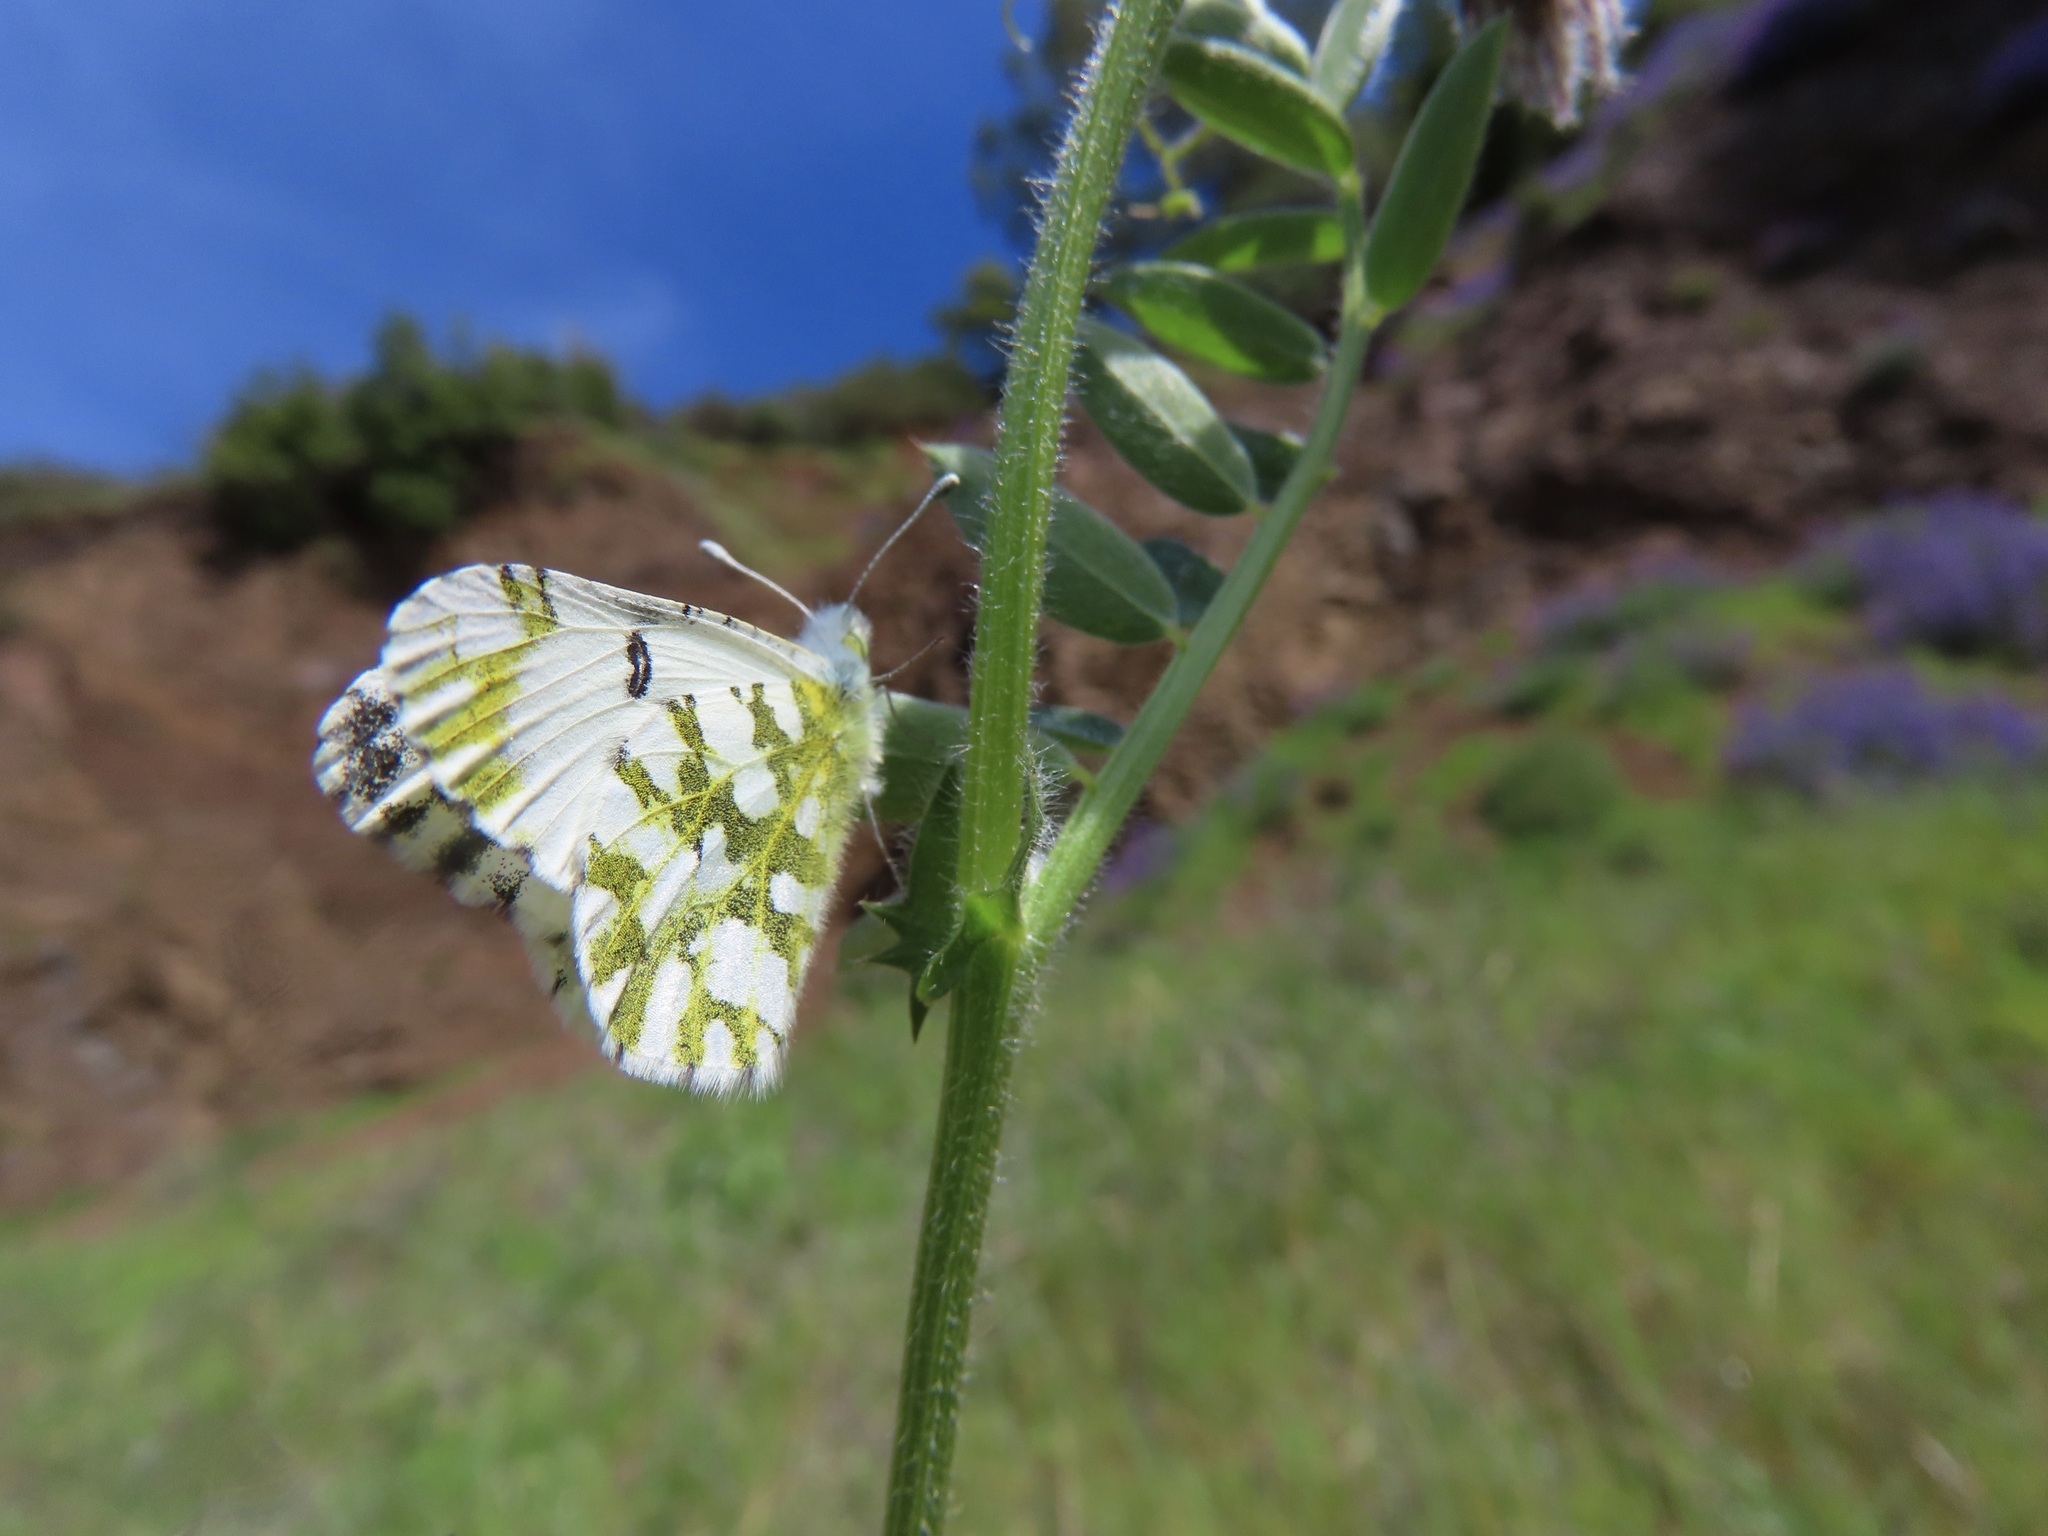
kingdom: Animalia
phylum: Arthropoda
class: Insecta
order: Lepidoptera
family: Pieridae
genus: Euchloe
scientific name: Euchloe hyantis
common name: California marble
